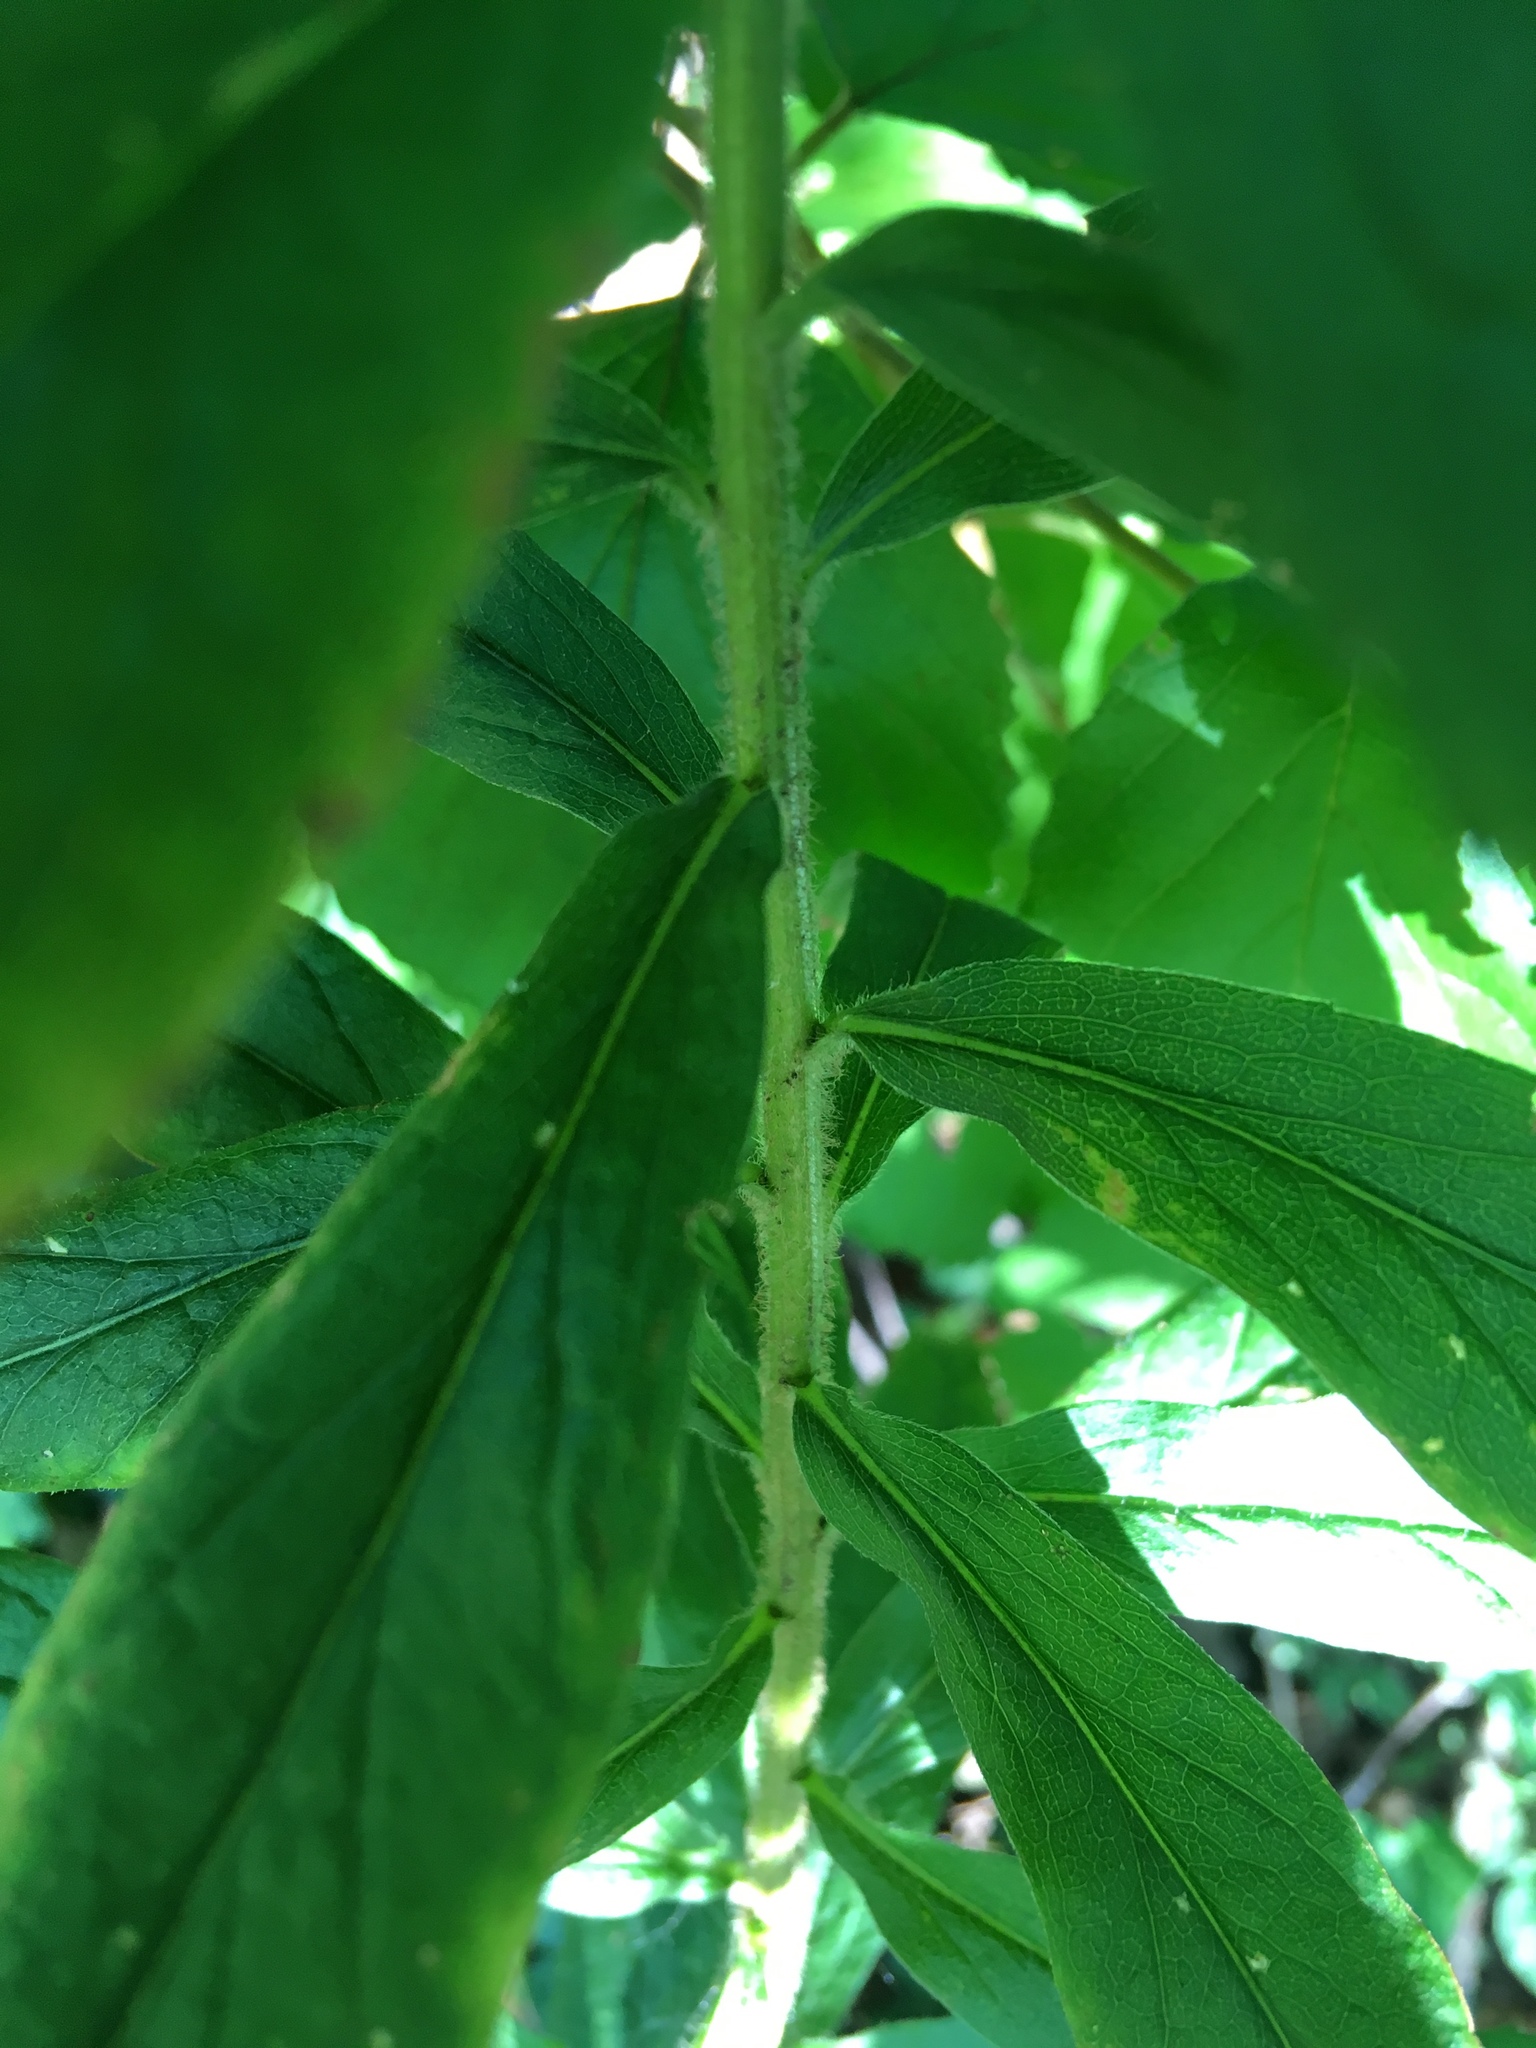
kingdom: Plantae
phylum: Tracheophyta
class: Magnoliopsida
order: Asterales
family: Asteraceae
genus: Solidago
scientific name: Solidago rugosa
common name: Rough-stemmed goldenrod
